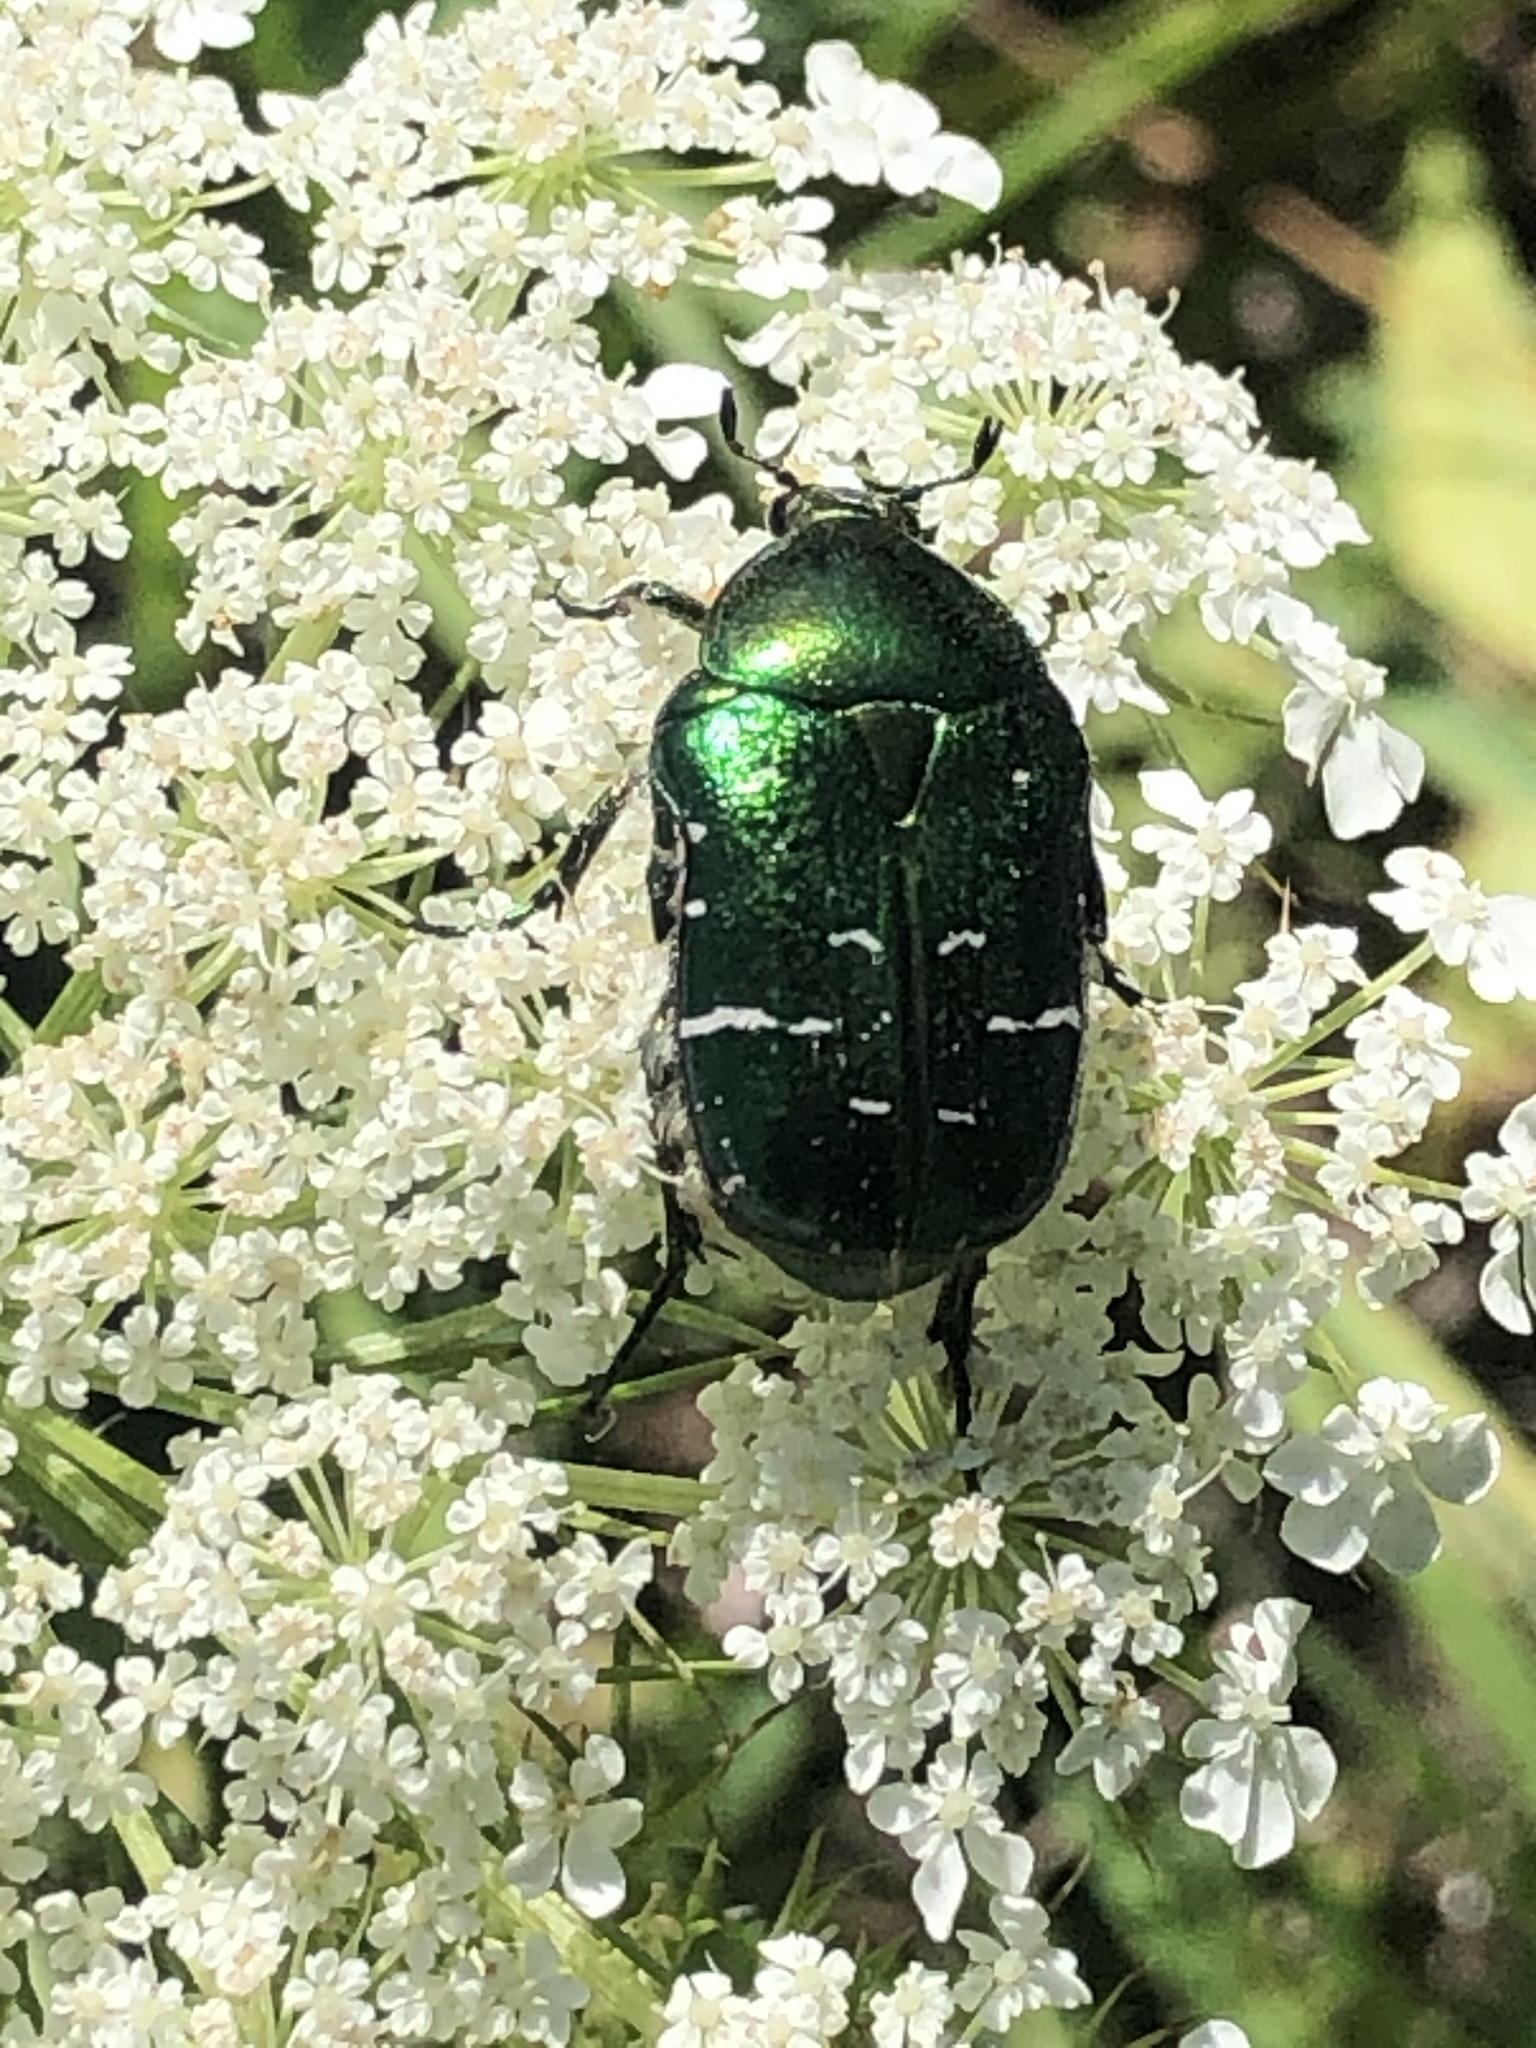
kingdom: Animalia
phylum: Arthropoda
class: Insecta
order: Coleoptera
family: Scarabaeidae
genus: Cetonia
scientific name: Cetonia aurata
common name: Rose chafer
